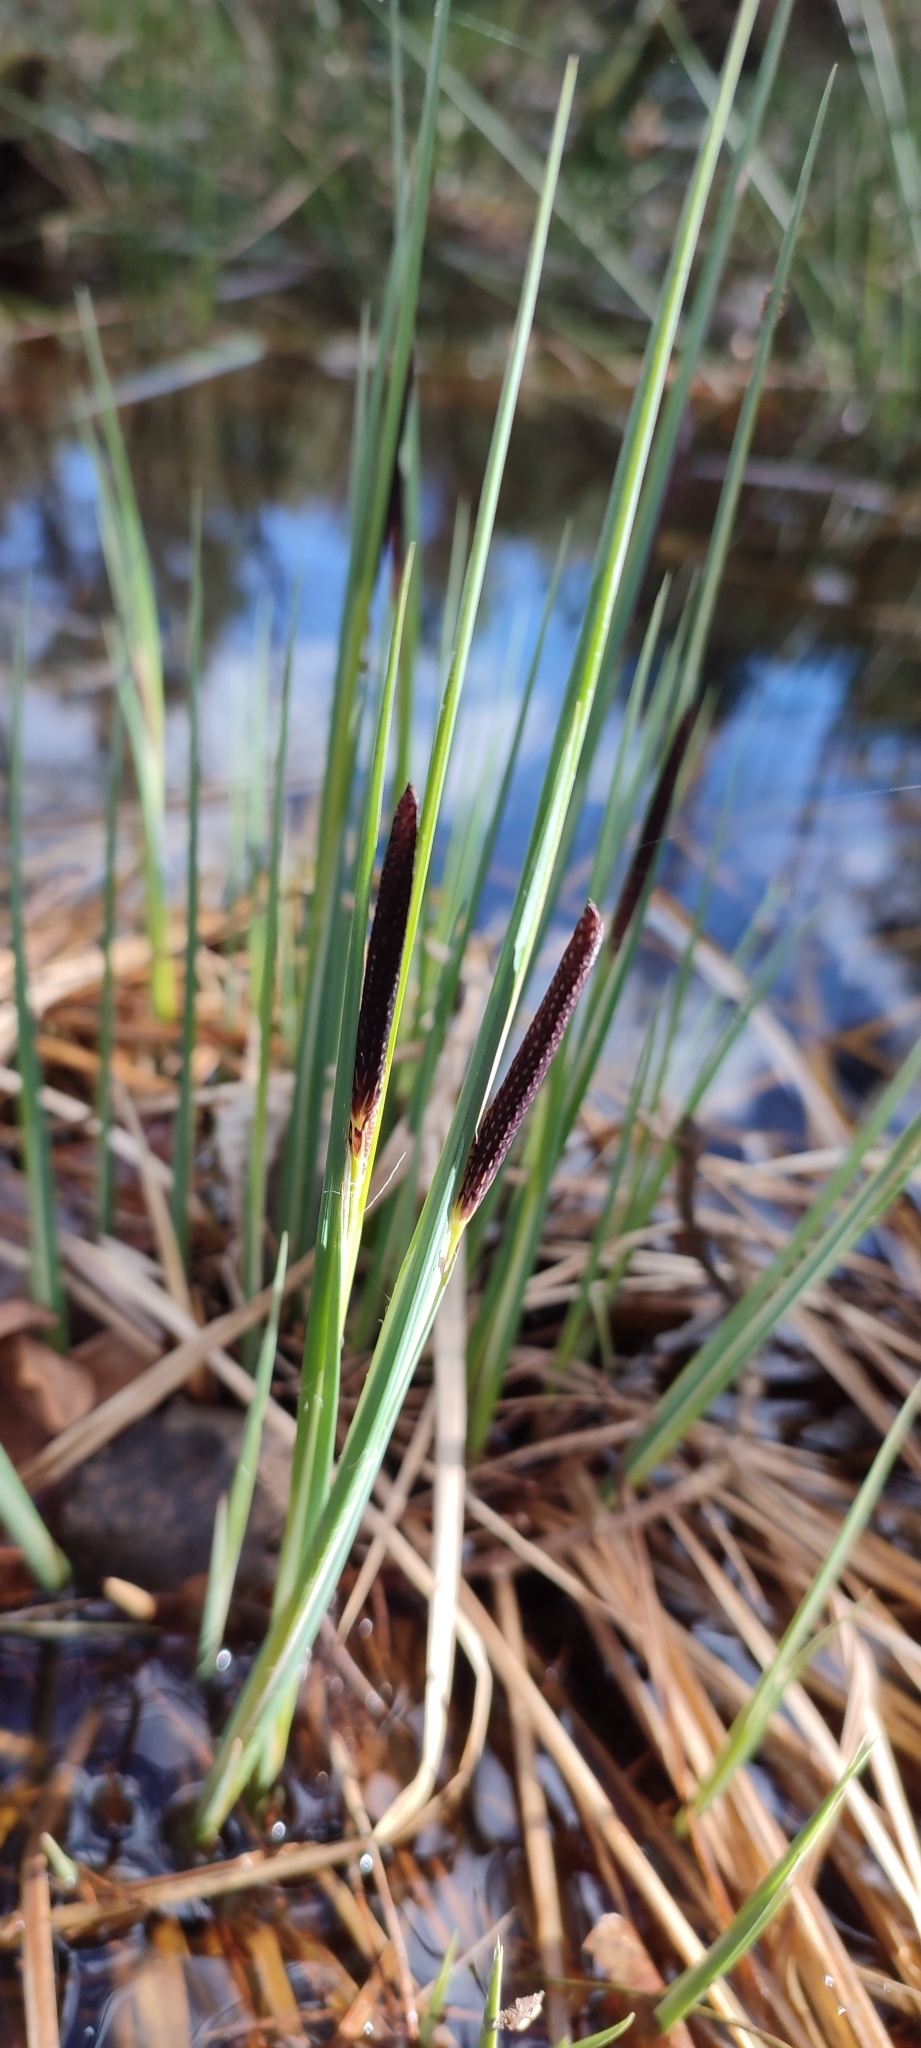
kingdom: Plantae
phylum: Tracheophyta
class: Liliopsida
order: Poales
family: Cyperaceae
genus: Carex
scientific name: Carex nigra
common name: Common sedge
